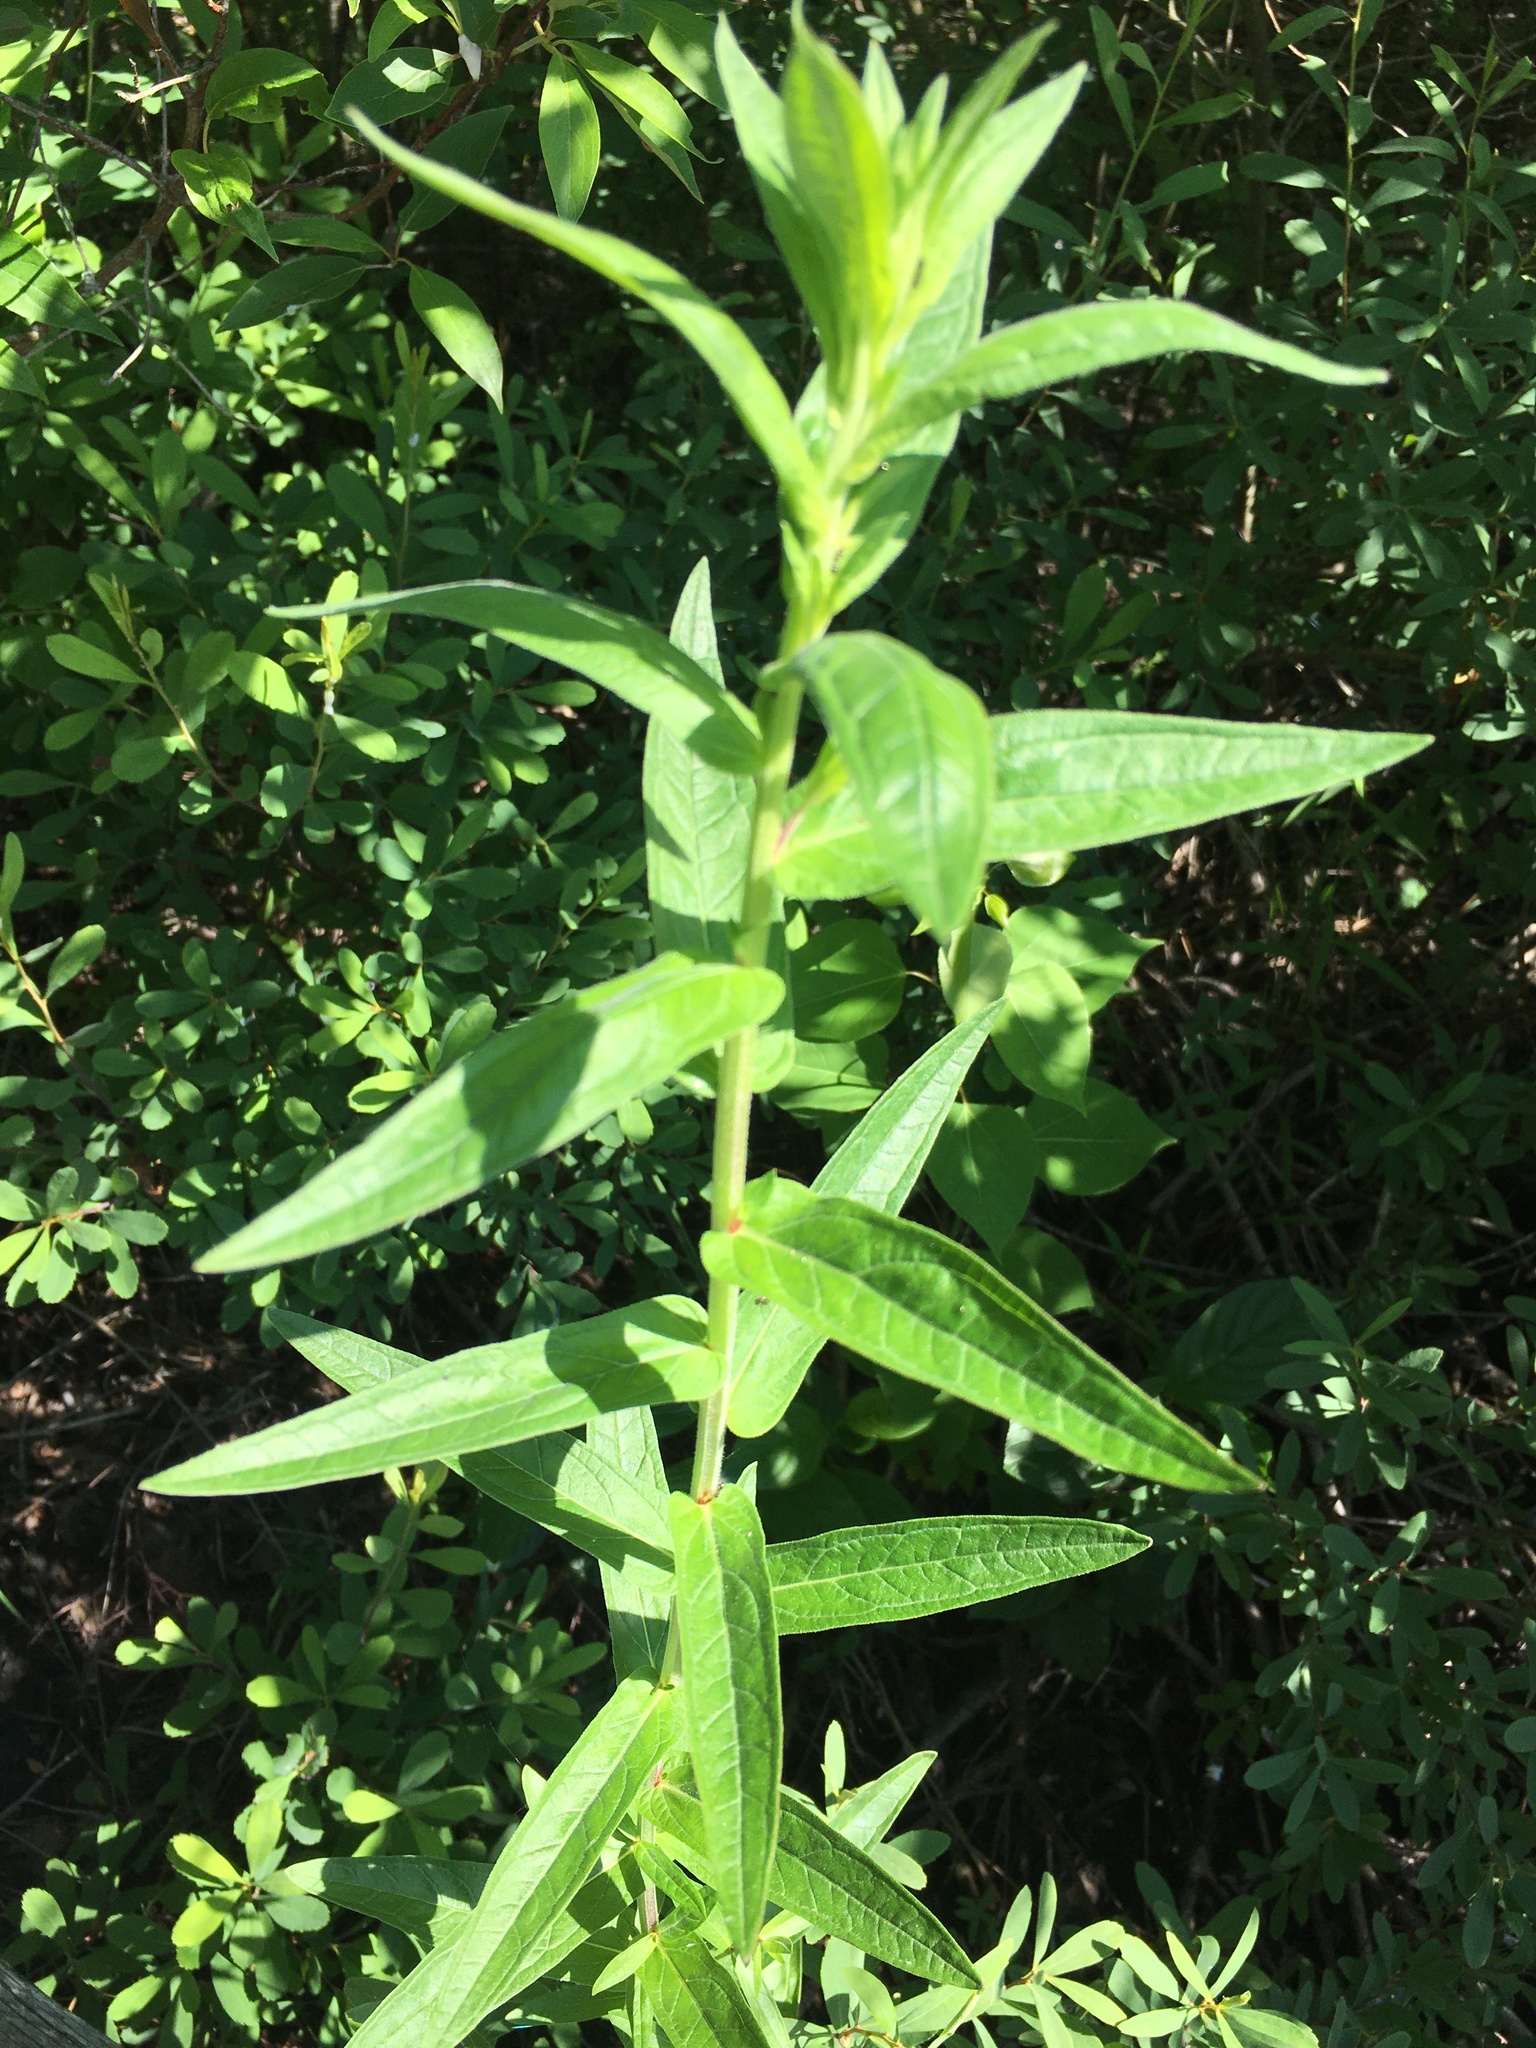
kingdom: Plantae
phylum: Tracheophyta
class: Magnoliopsida
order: Myrtales
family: Lythraceae
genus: Lythrum
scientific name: Lythrum salicaria
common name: Purple loosestrife
